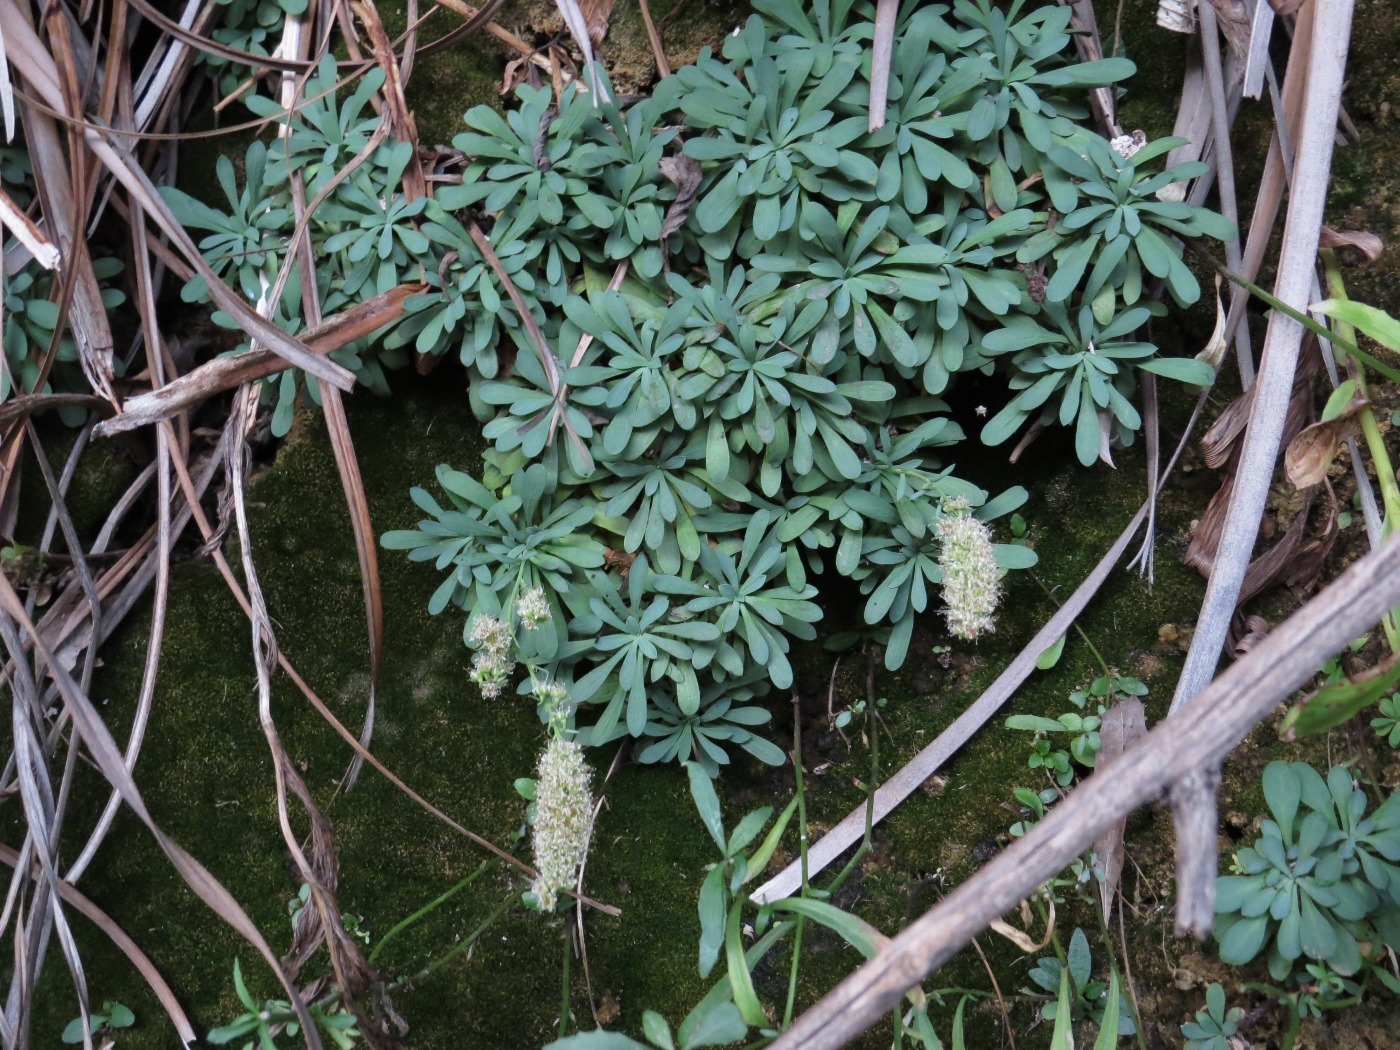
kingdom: Plantae
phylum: Tracheophyta
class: Magnoliopsida
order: Rosales
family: Rosaceae
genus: Petrophytum
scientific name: Petrophytum caespitosum
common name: Mat rockspirea
